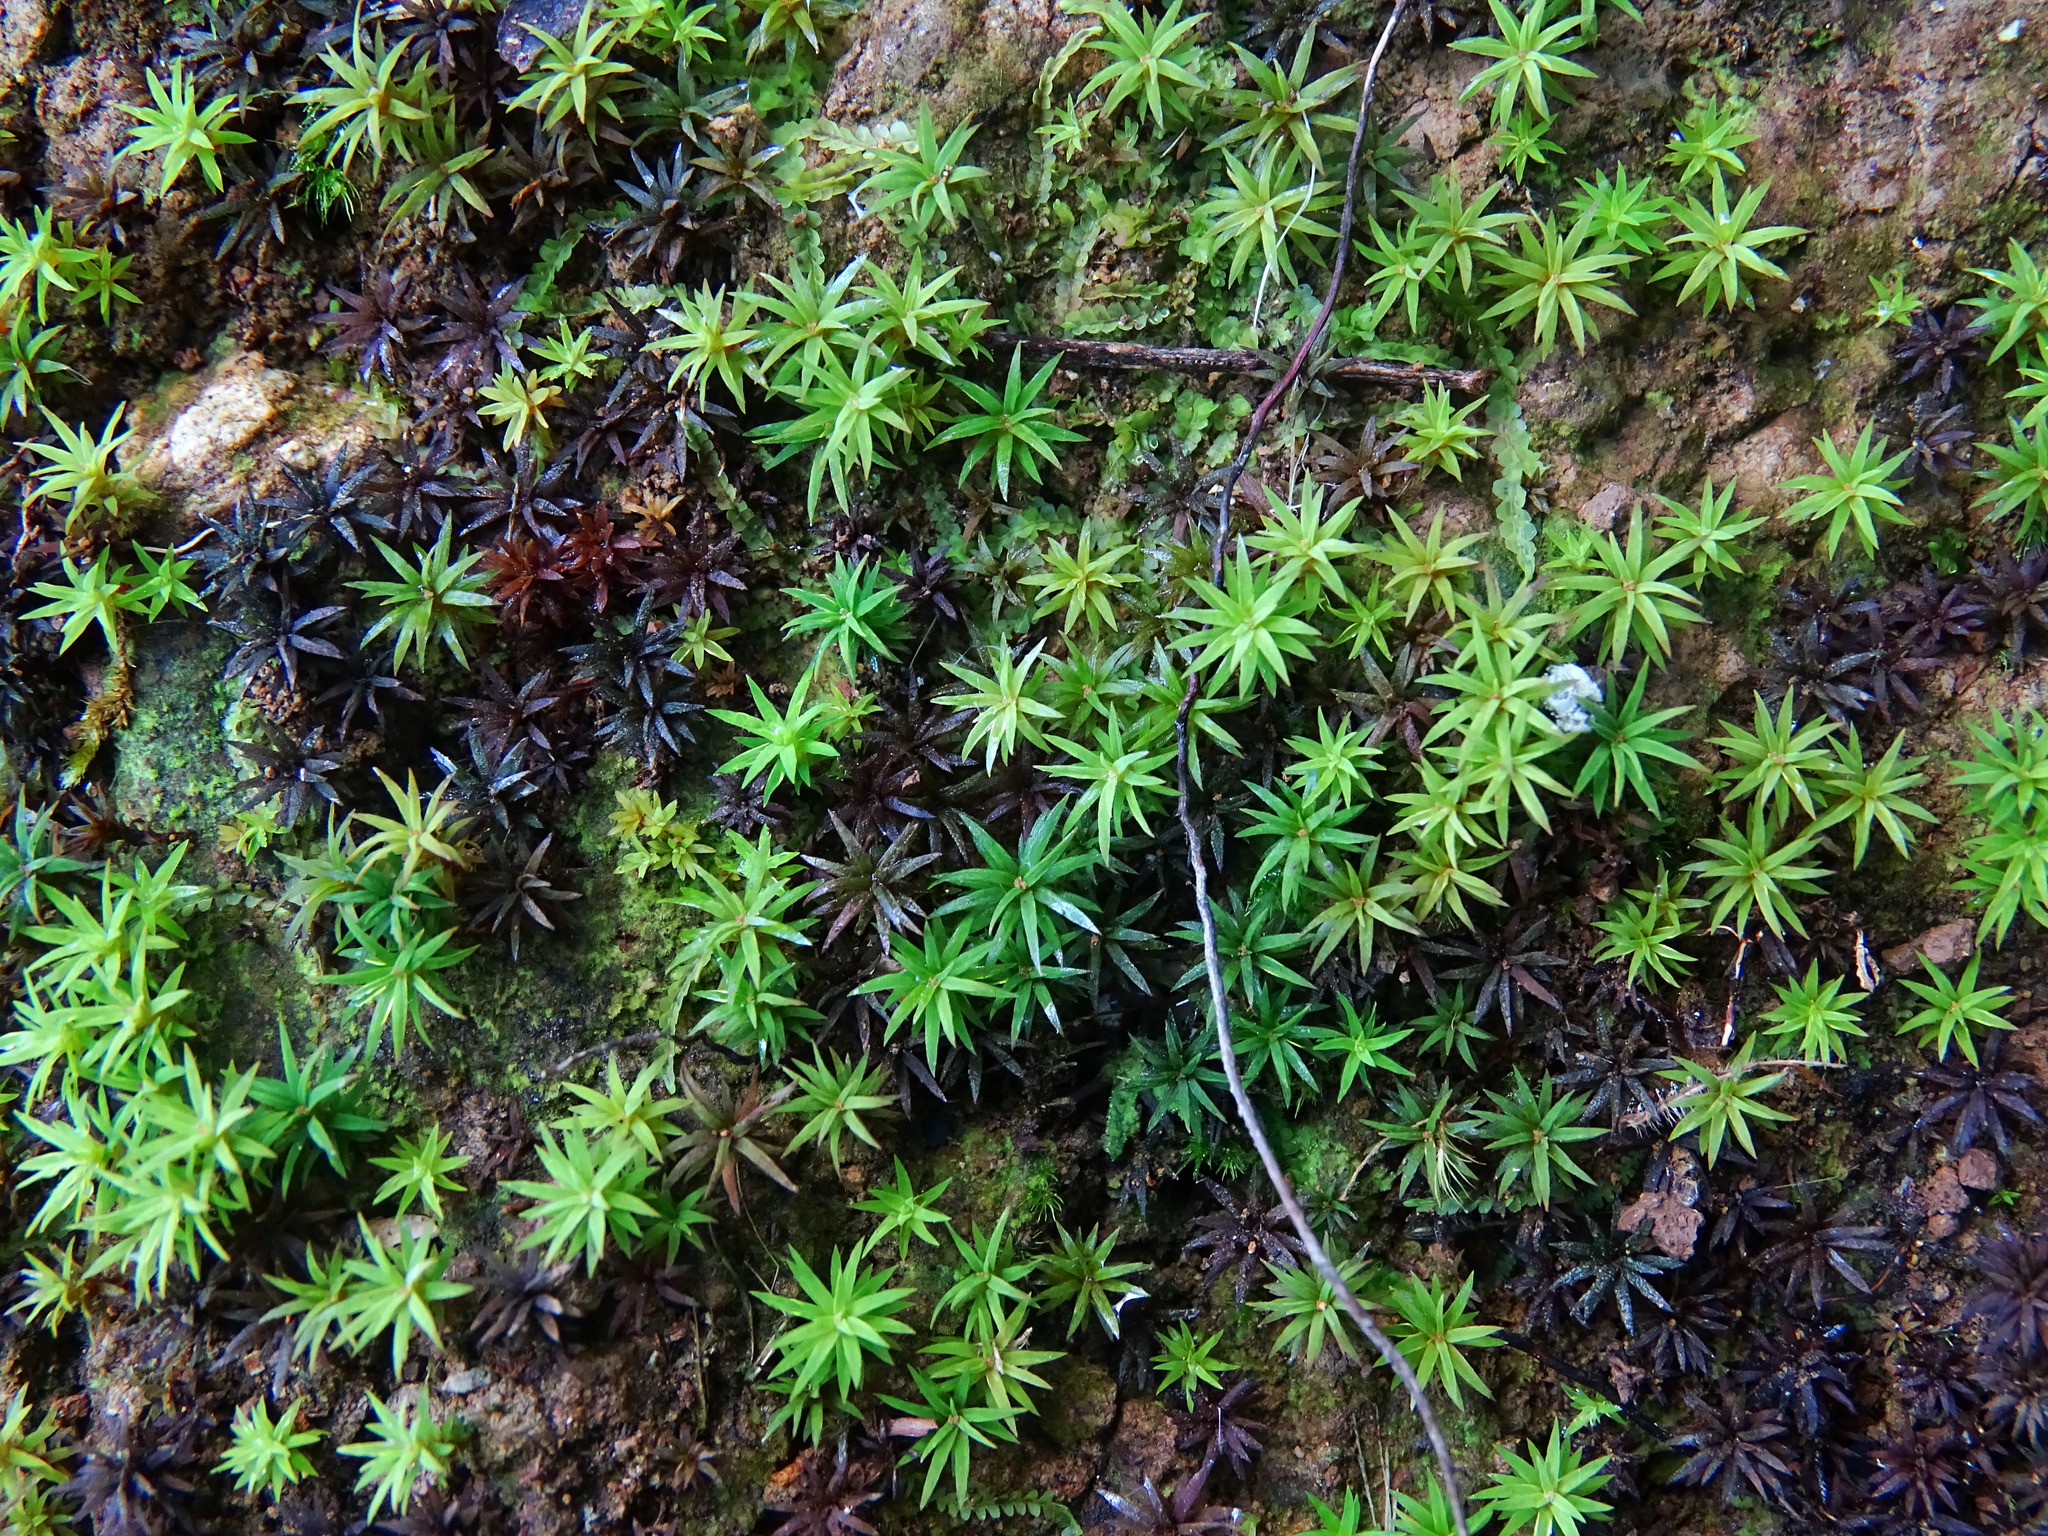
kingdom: Plantae
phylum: Bryophyta
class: Polytrichopsida
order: Polytrichales
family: Polytrichaceae
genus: Pogonatum
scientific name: Pogonatum tahitense
